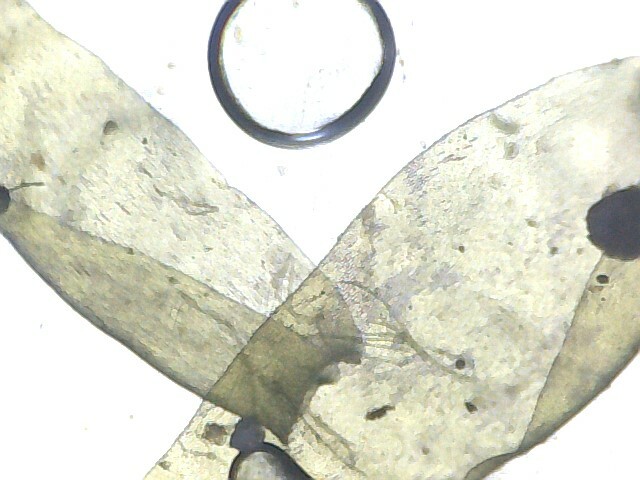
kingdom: Plantae
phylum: Bryophyta
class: Bryopsida
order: Hypnales
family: Neckeraceae
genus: Exsertotheca
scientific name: Exsertotheca crispa
